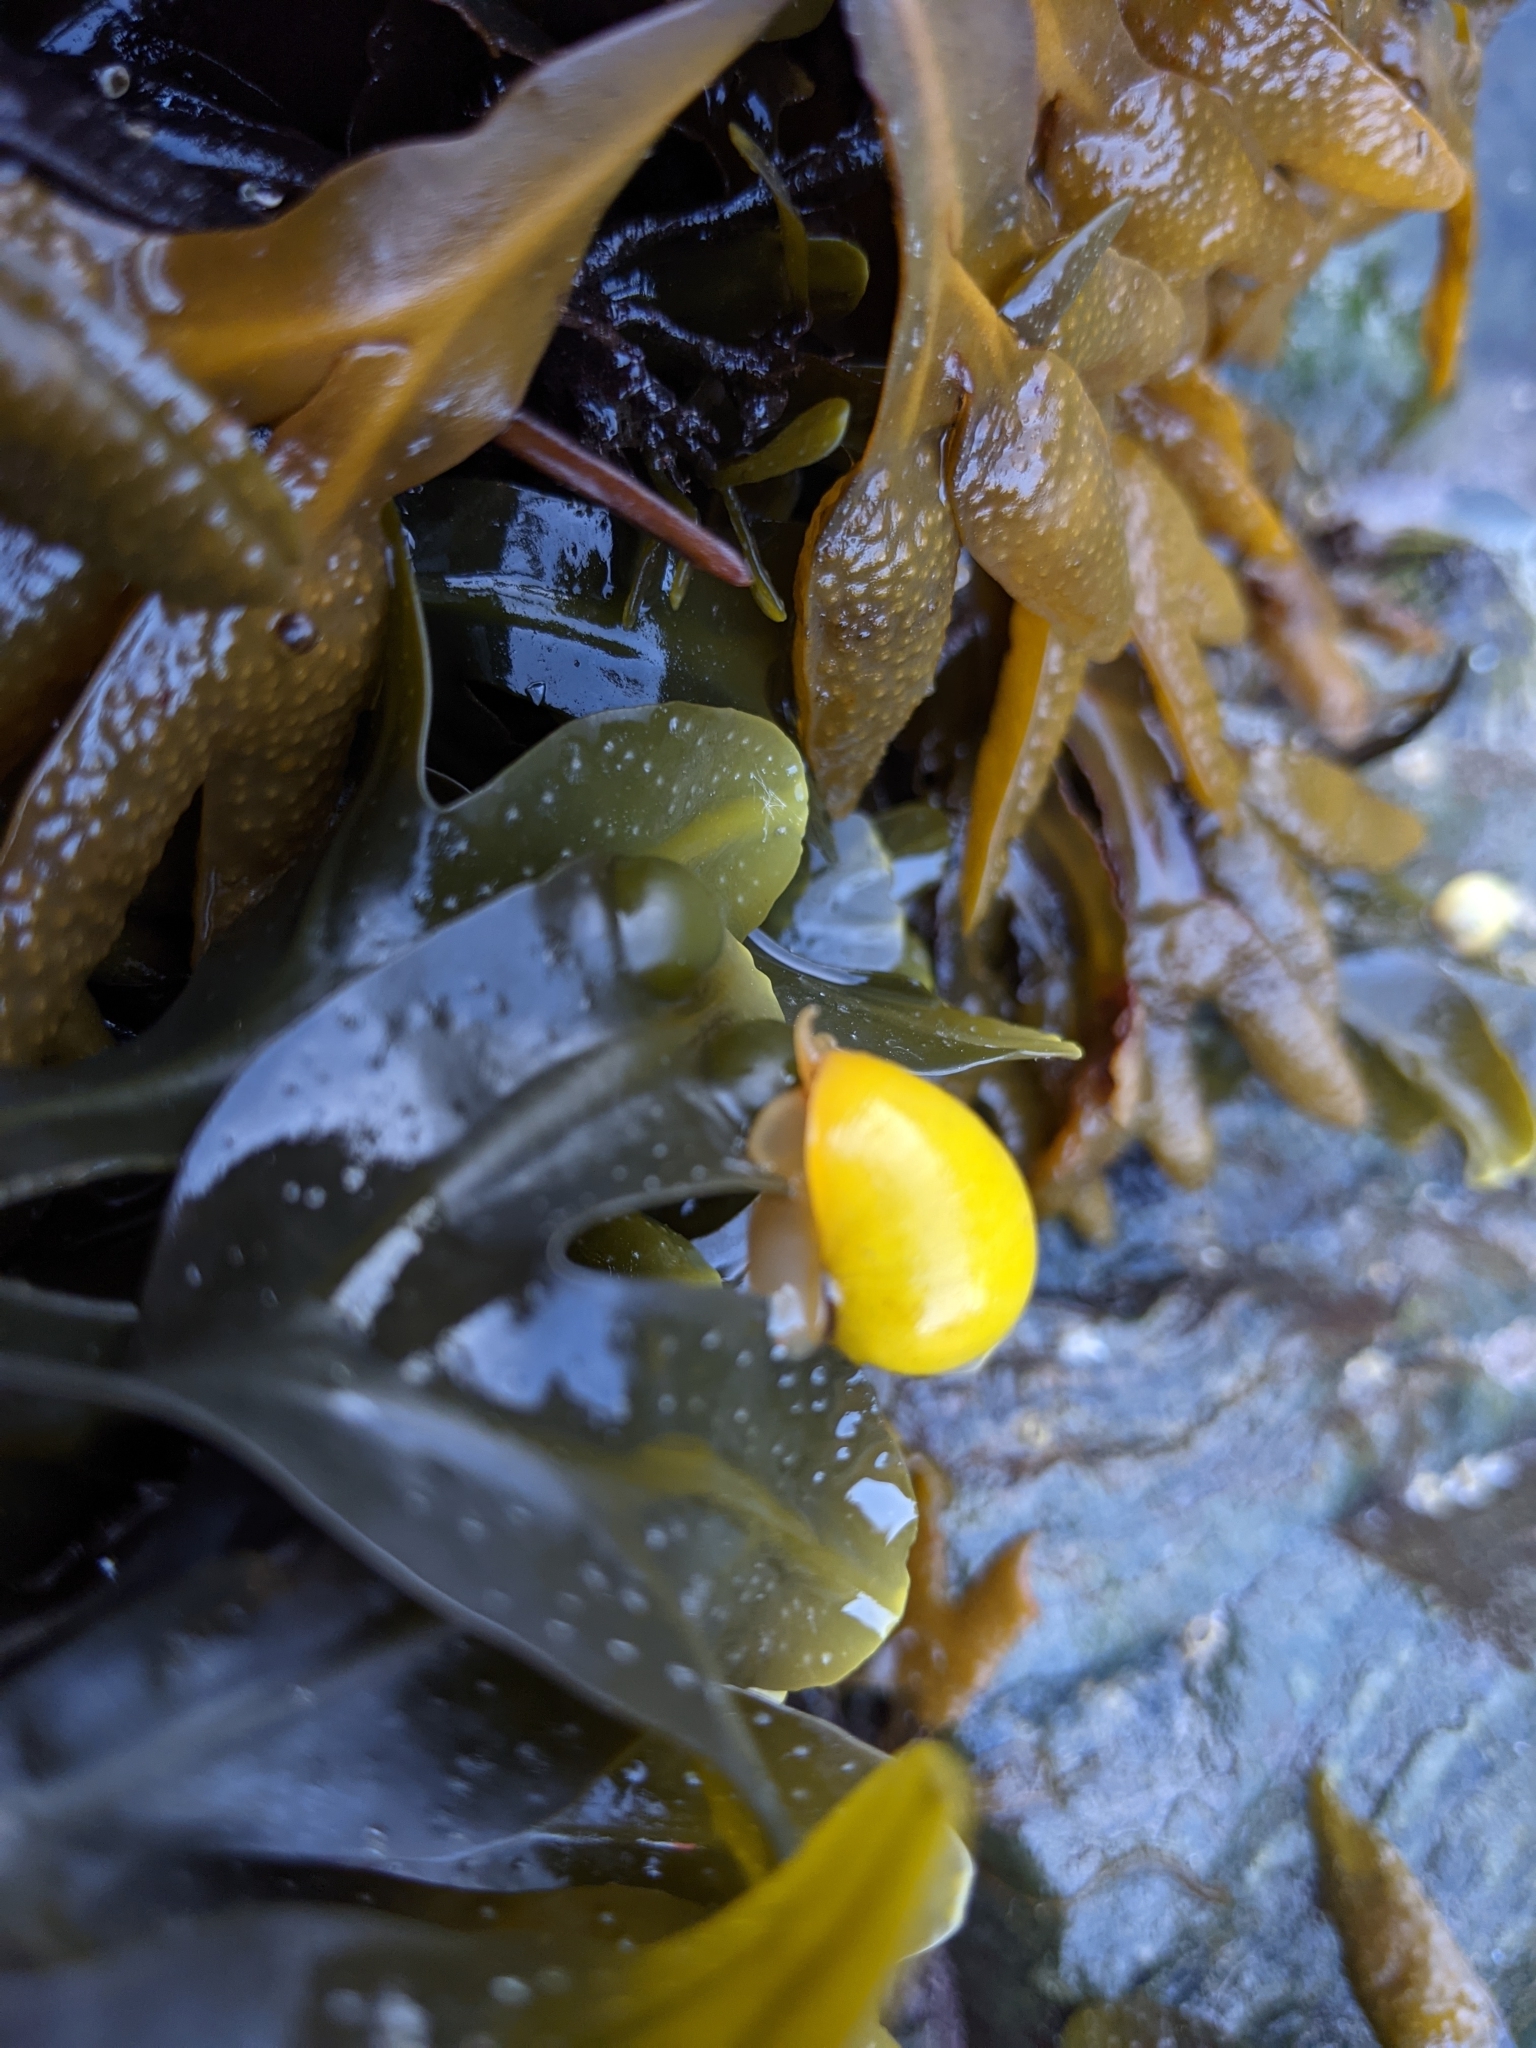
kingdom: Animalia
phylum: Mollusca
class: Gastropoda
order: Littorinimorpha
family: Littorinidae
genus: Littorina
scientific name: Littorina obtusata
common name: Flat periwinkle
